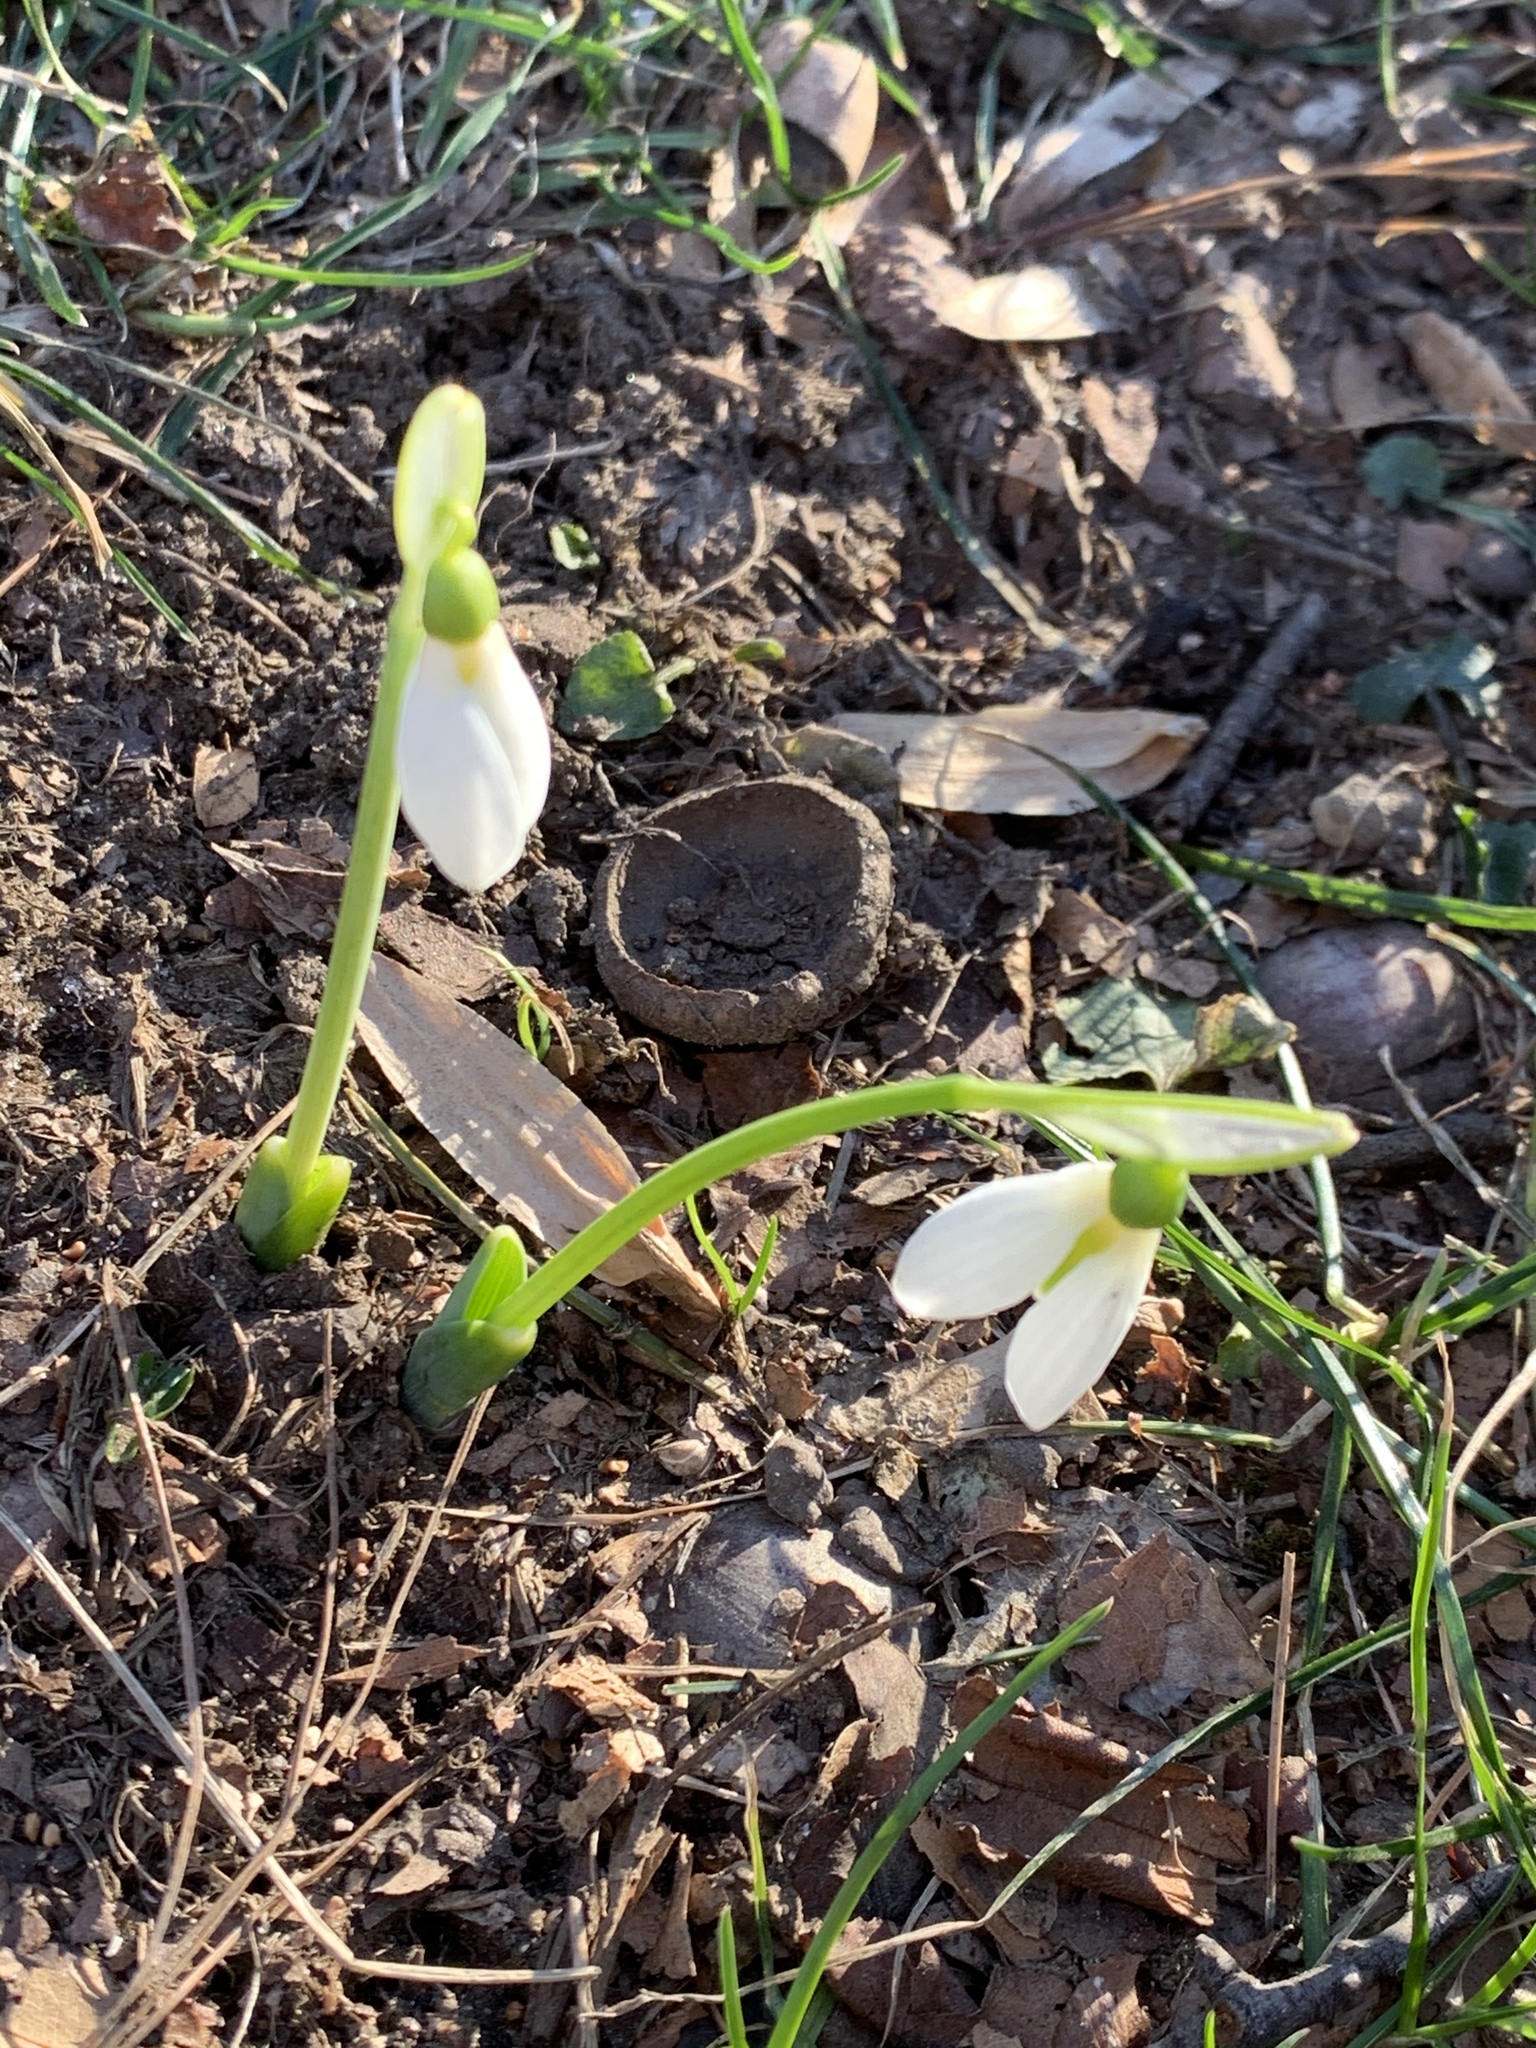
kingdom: Plantae
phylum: Tracheophyta
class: Liliopsida
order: Asparagales
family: Amaryllidaceae
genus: Galanthus
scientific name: Galanthus nivalis
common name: Snowdrop
